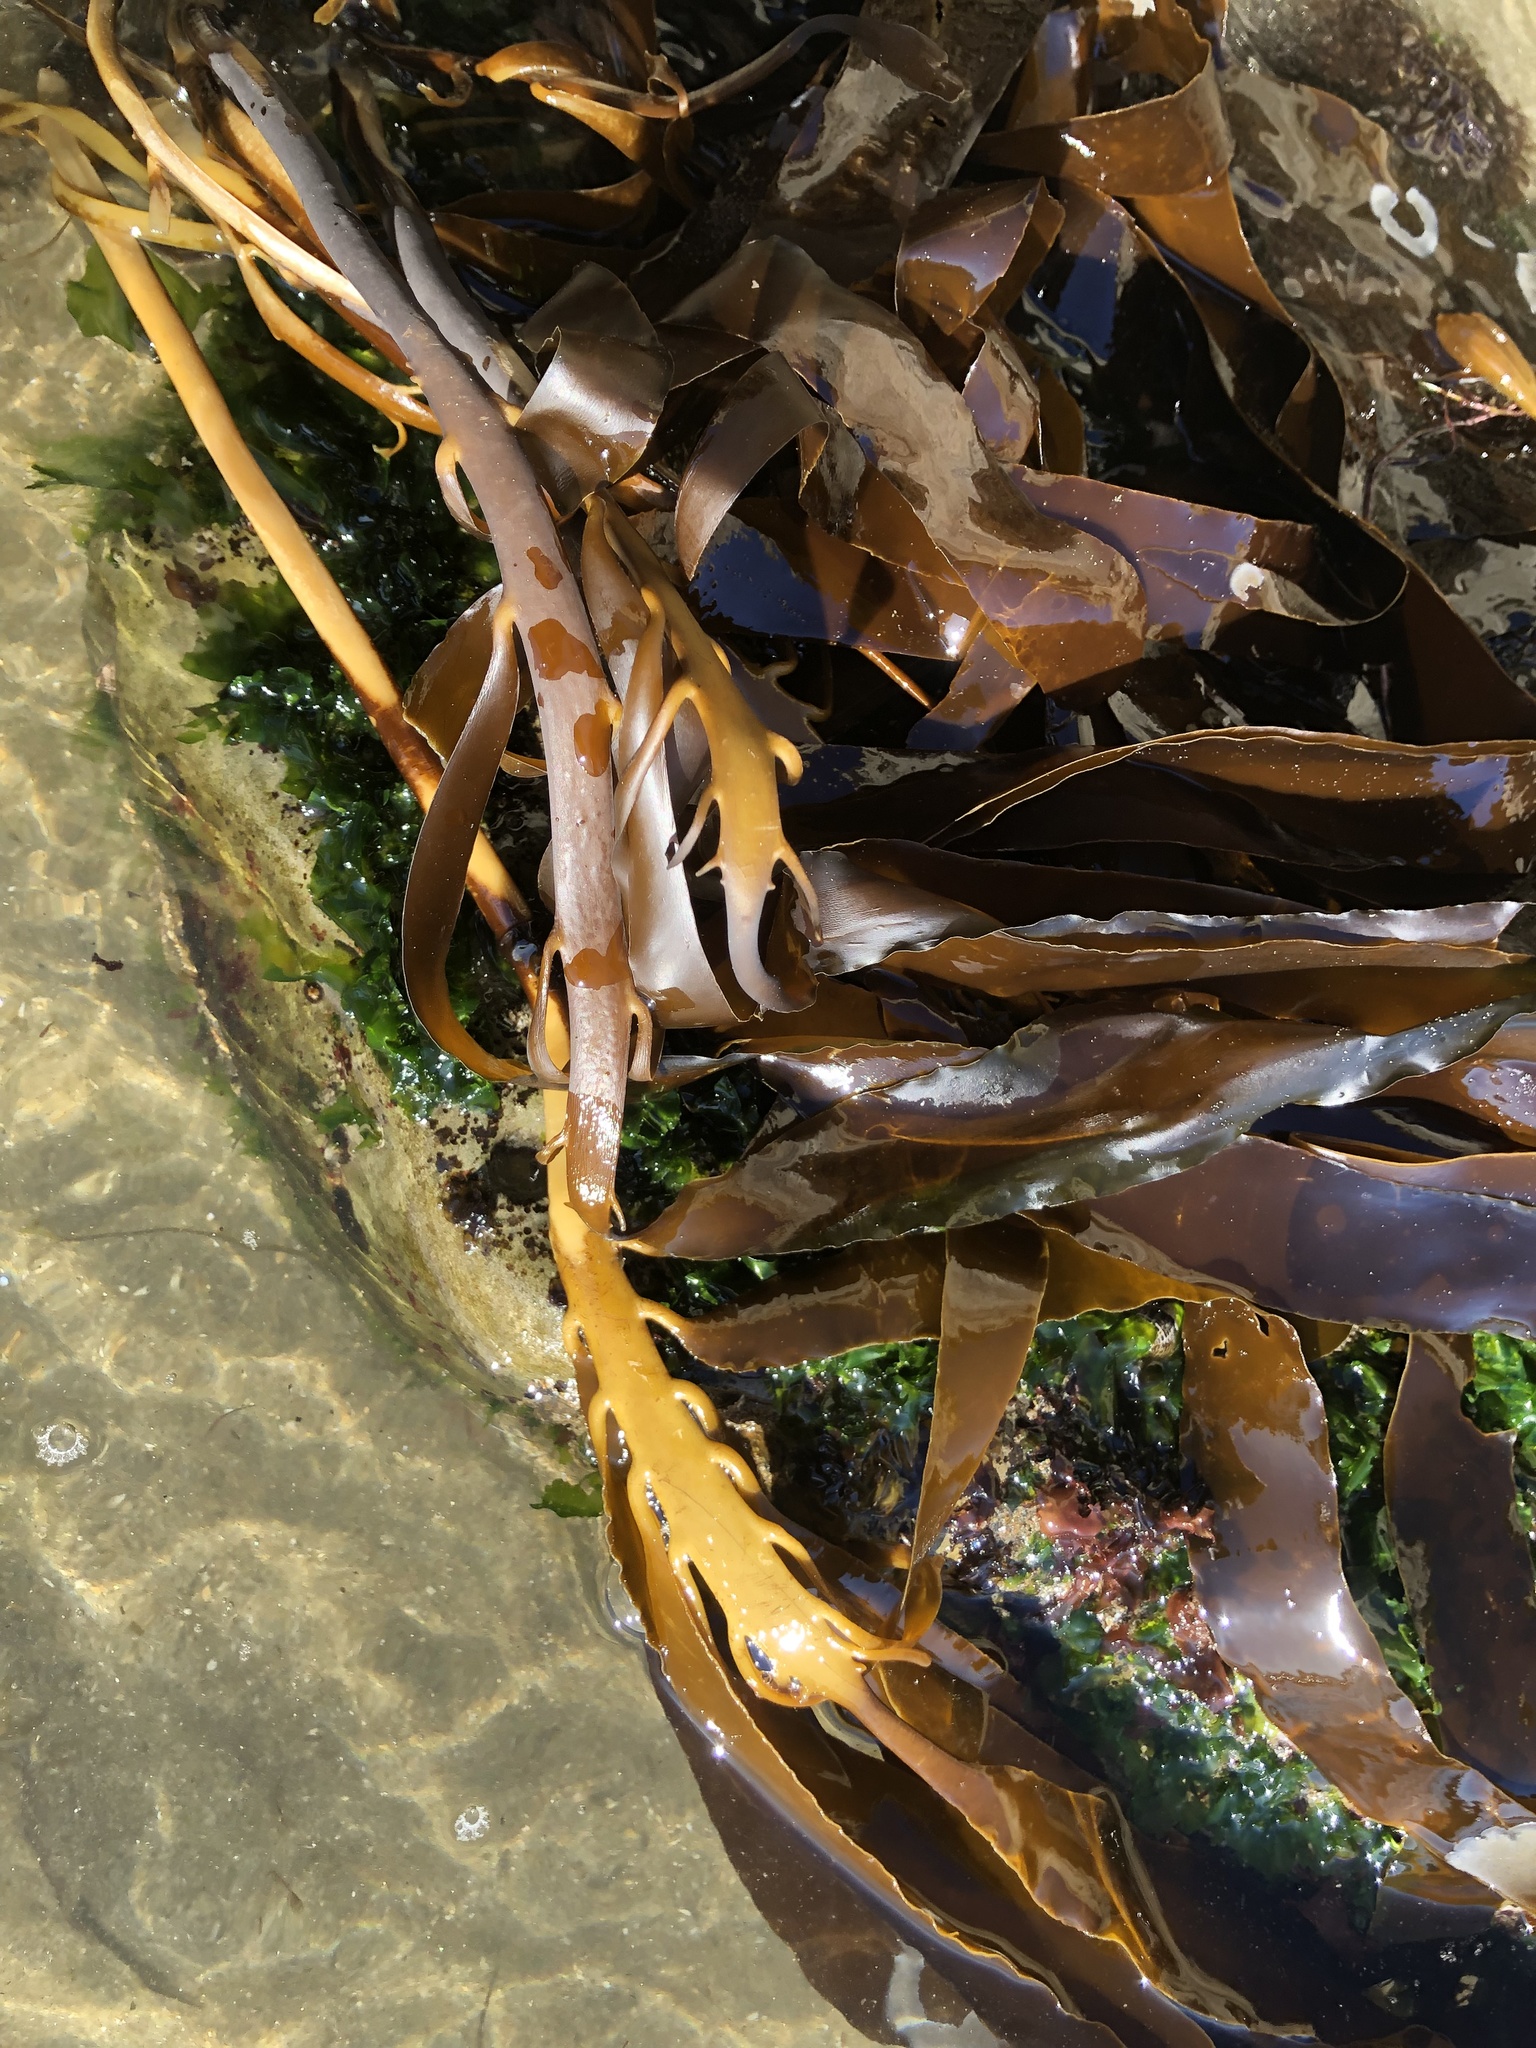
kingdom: Chromista
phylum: Ochrophyta
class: Phaeophyceae
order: Laminariales
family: Alariaceae
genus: Pterygophora
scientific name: Pterygophora californica
